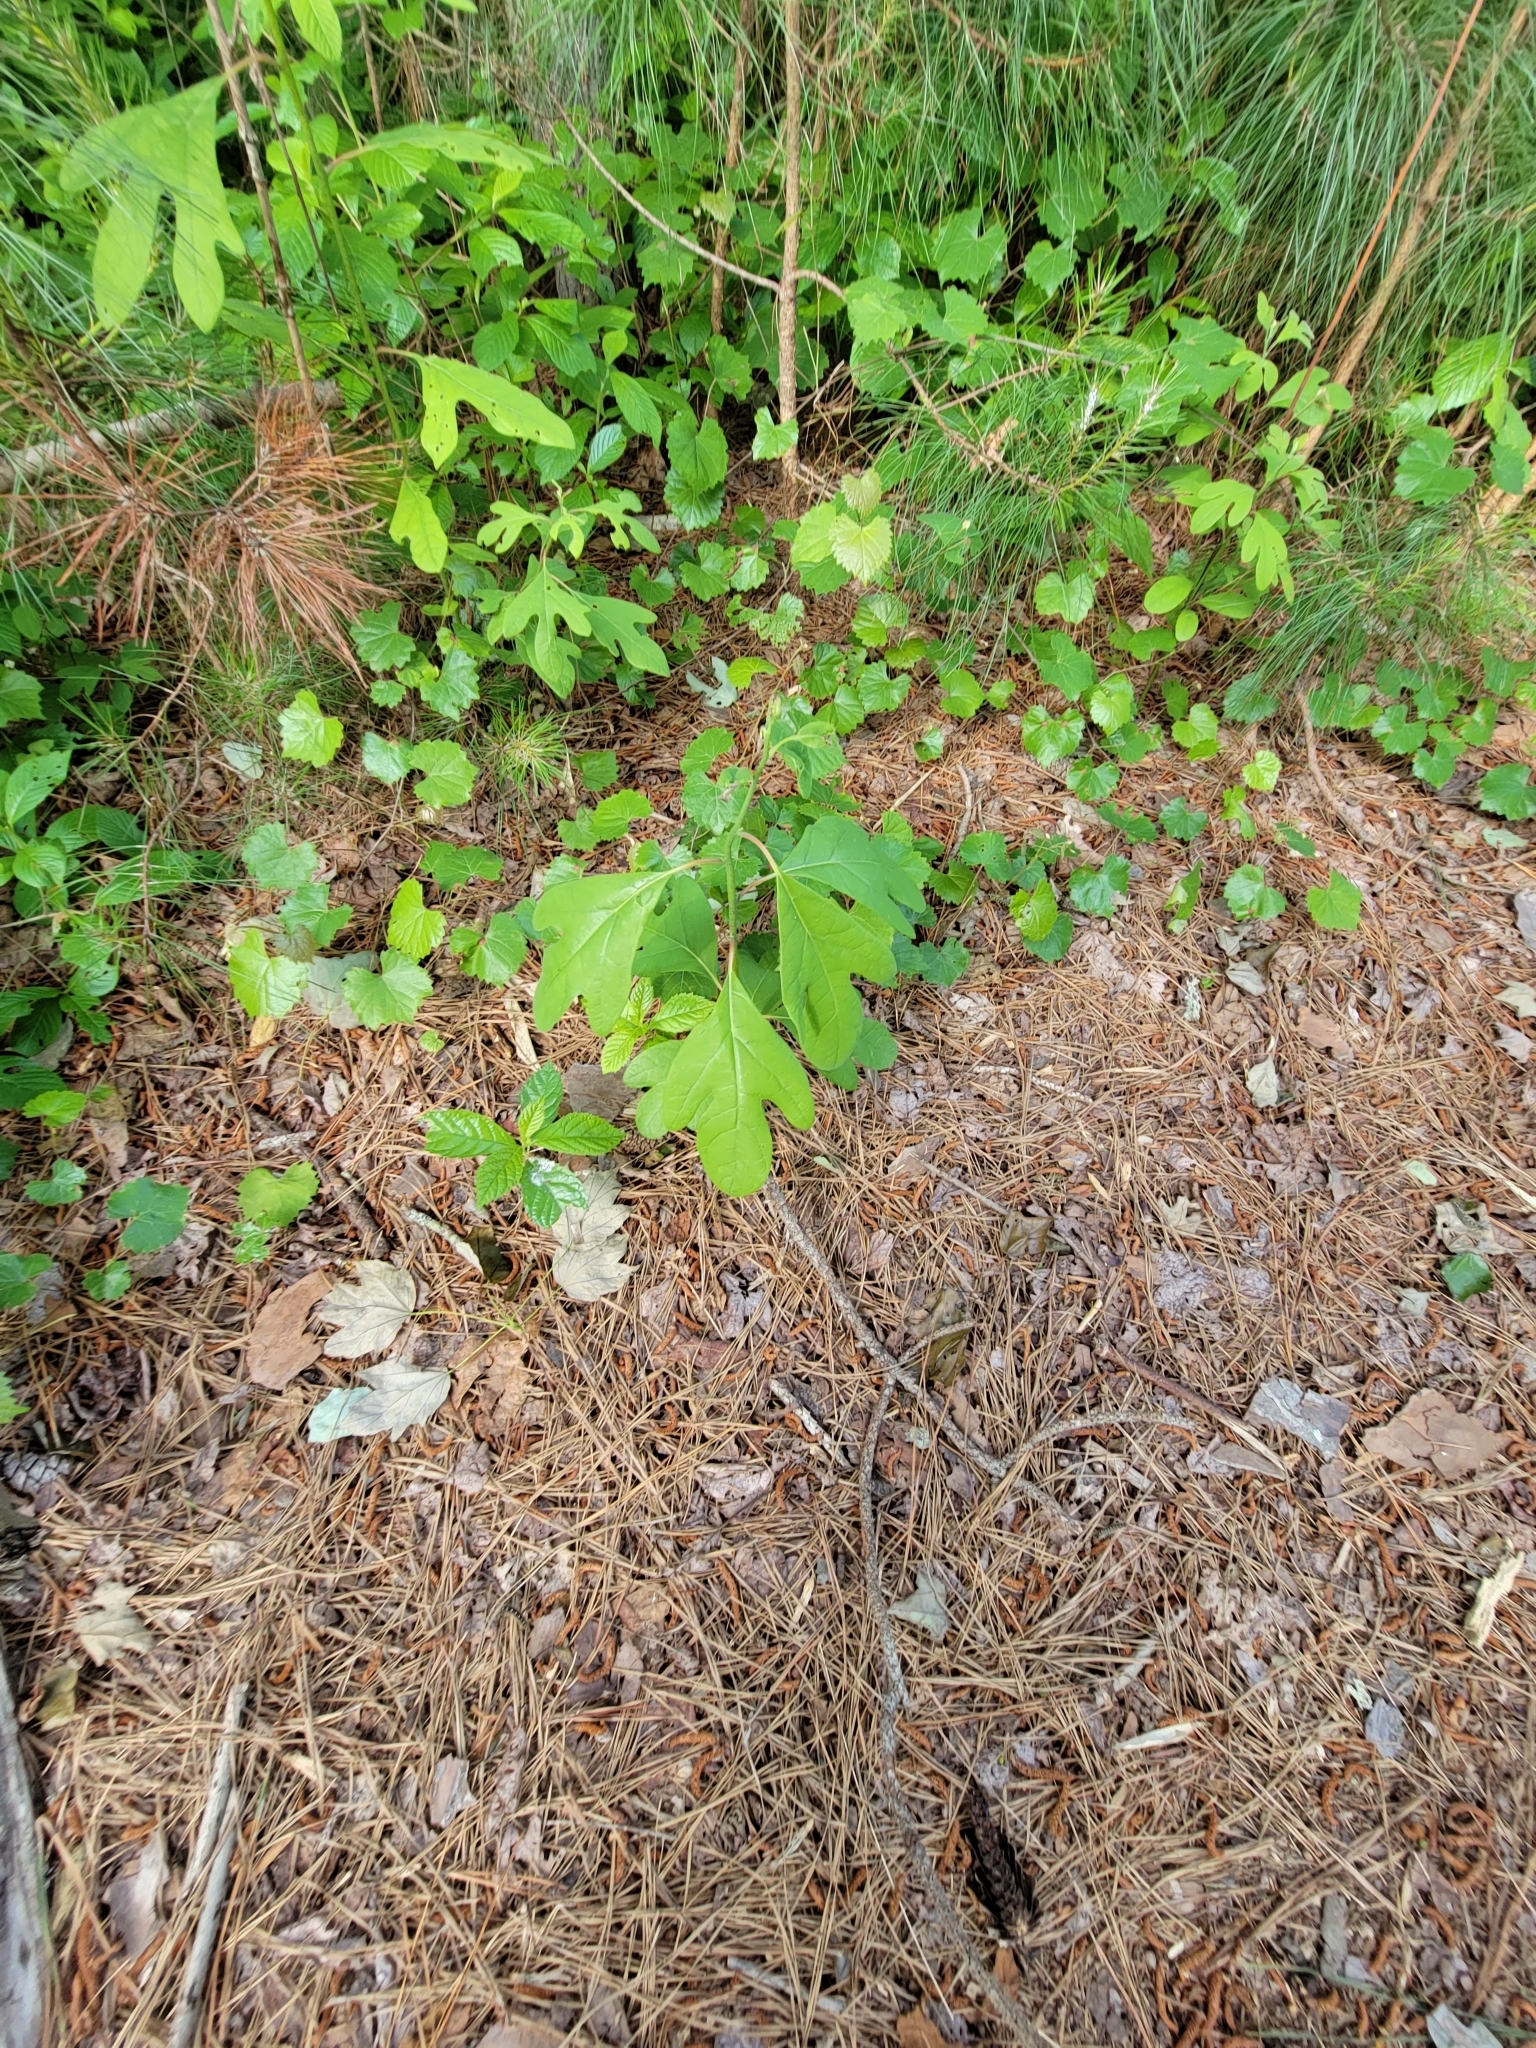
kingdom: Plantae
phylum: Tracheophyta
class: Magnoliopsida
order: Laurales
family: Lauraceae
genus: Sassafras
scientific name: Sassafras albidum
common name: Sassafras
